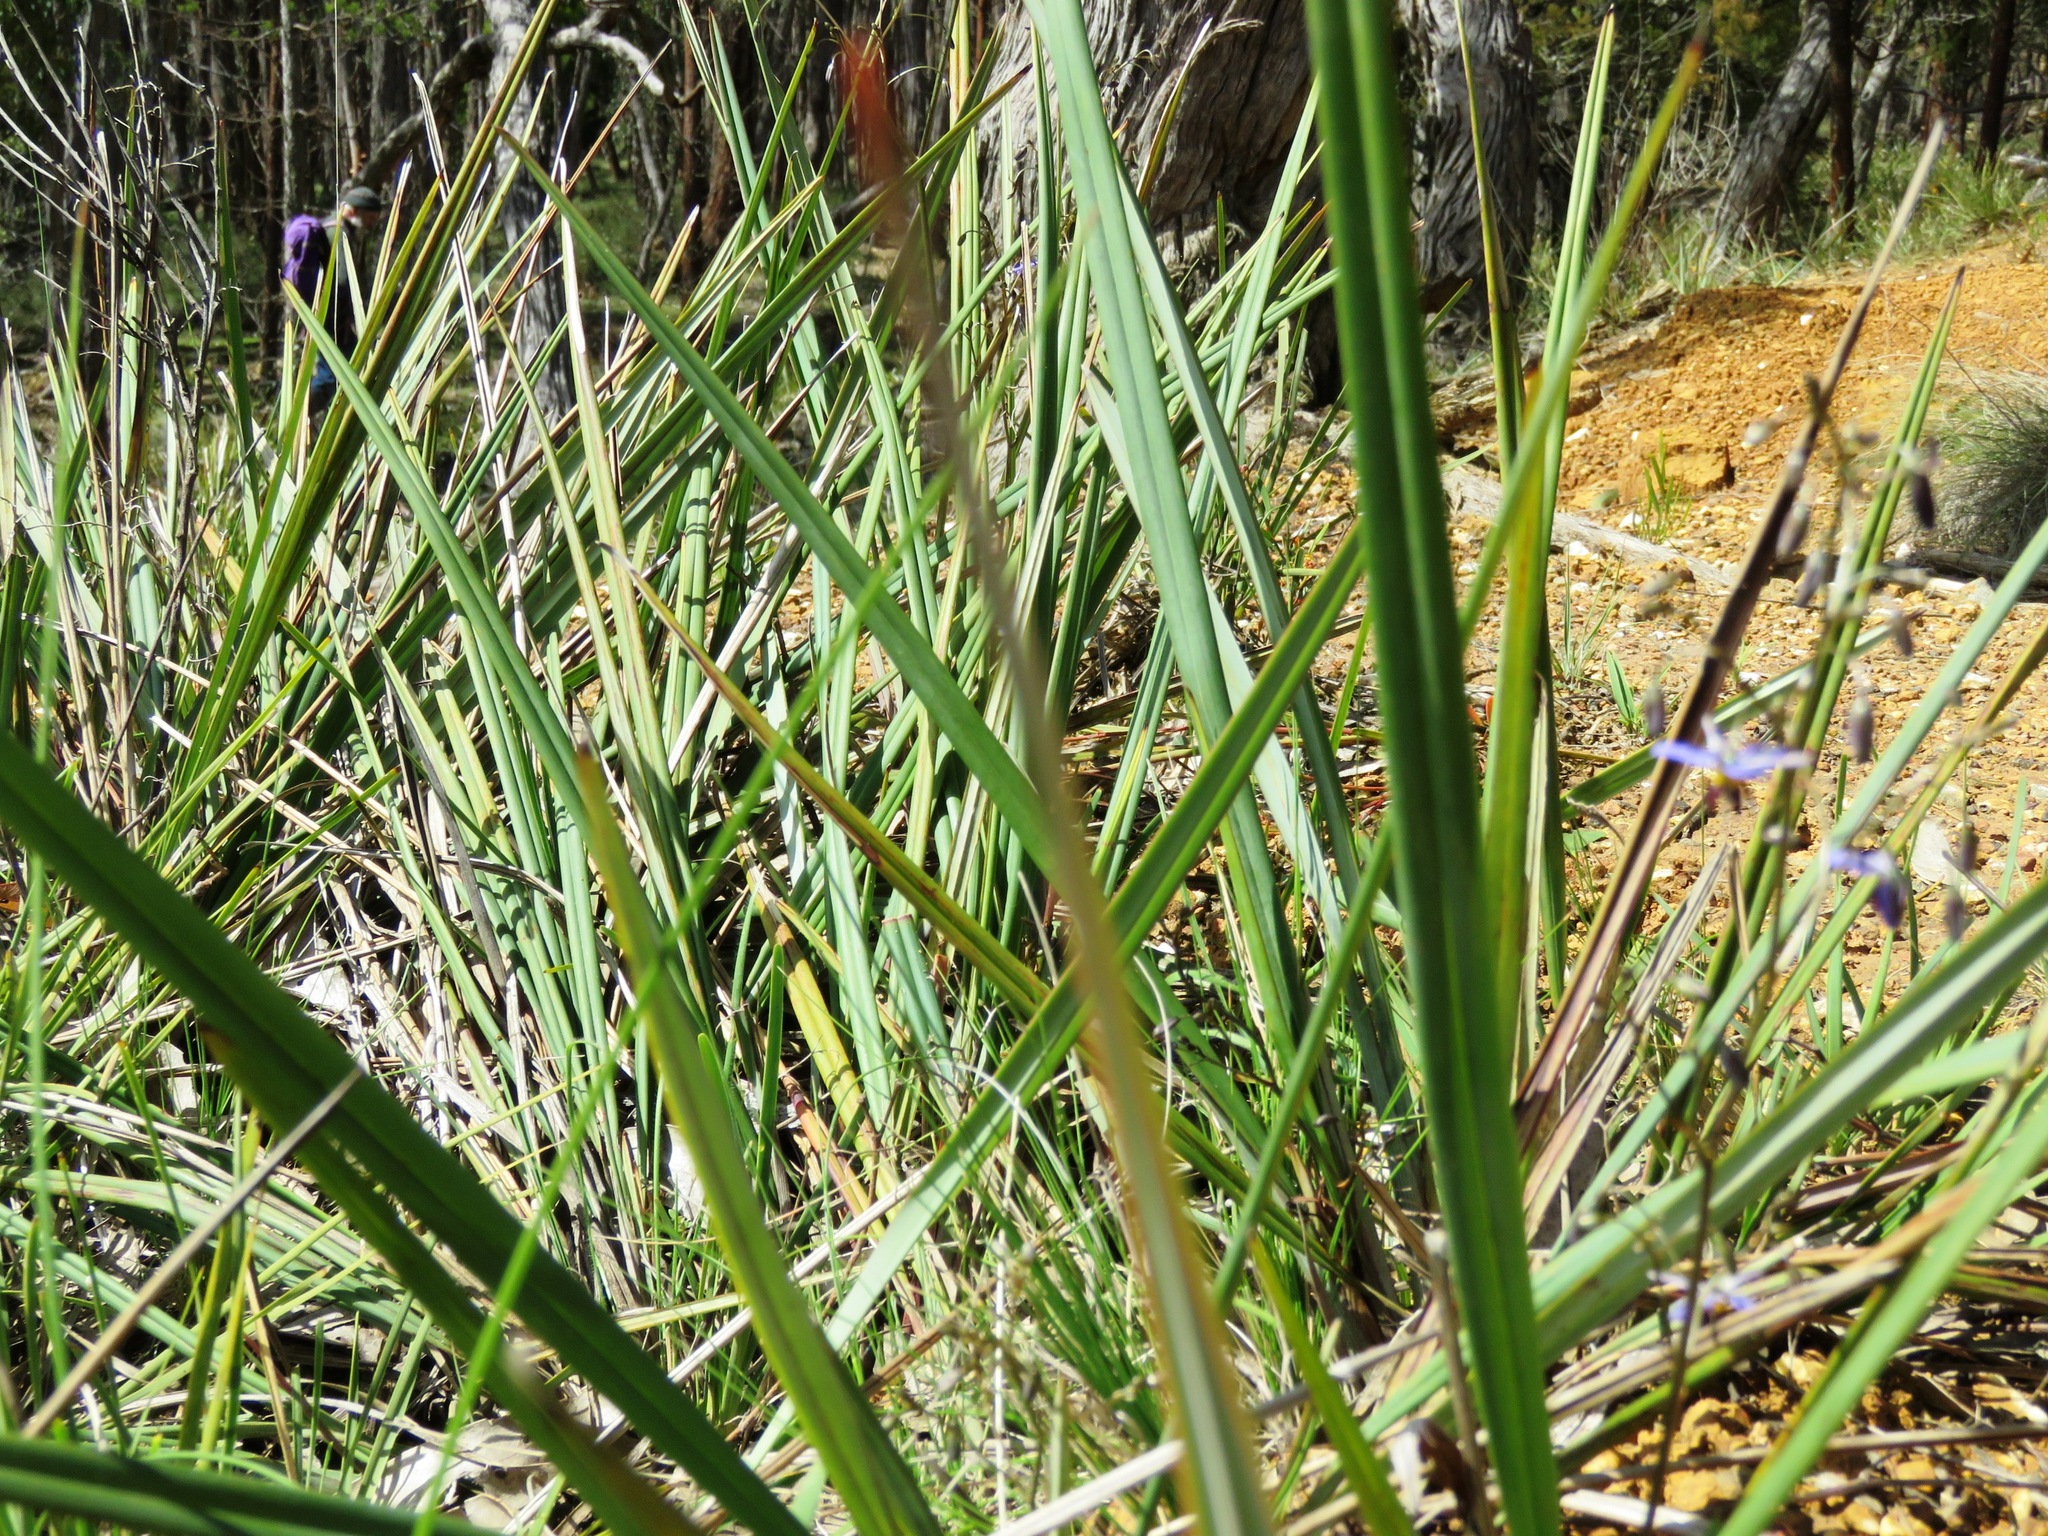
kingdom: Plantae
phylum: Tracheophyta
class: Liliopsida
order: Asparagales
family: Asphodelaceae
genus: Dianella
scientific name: Dianella revoluta
